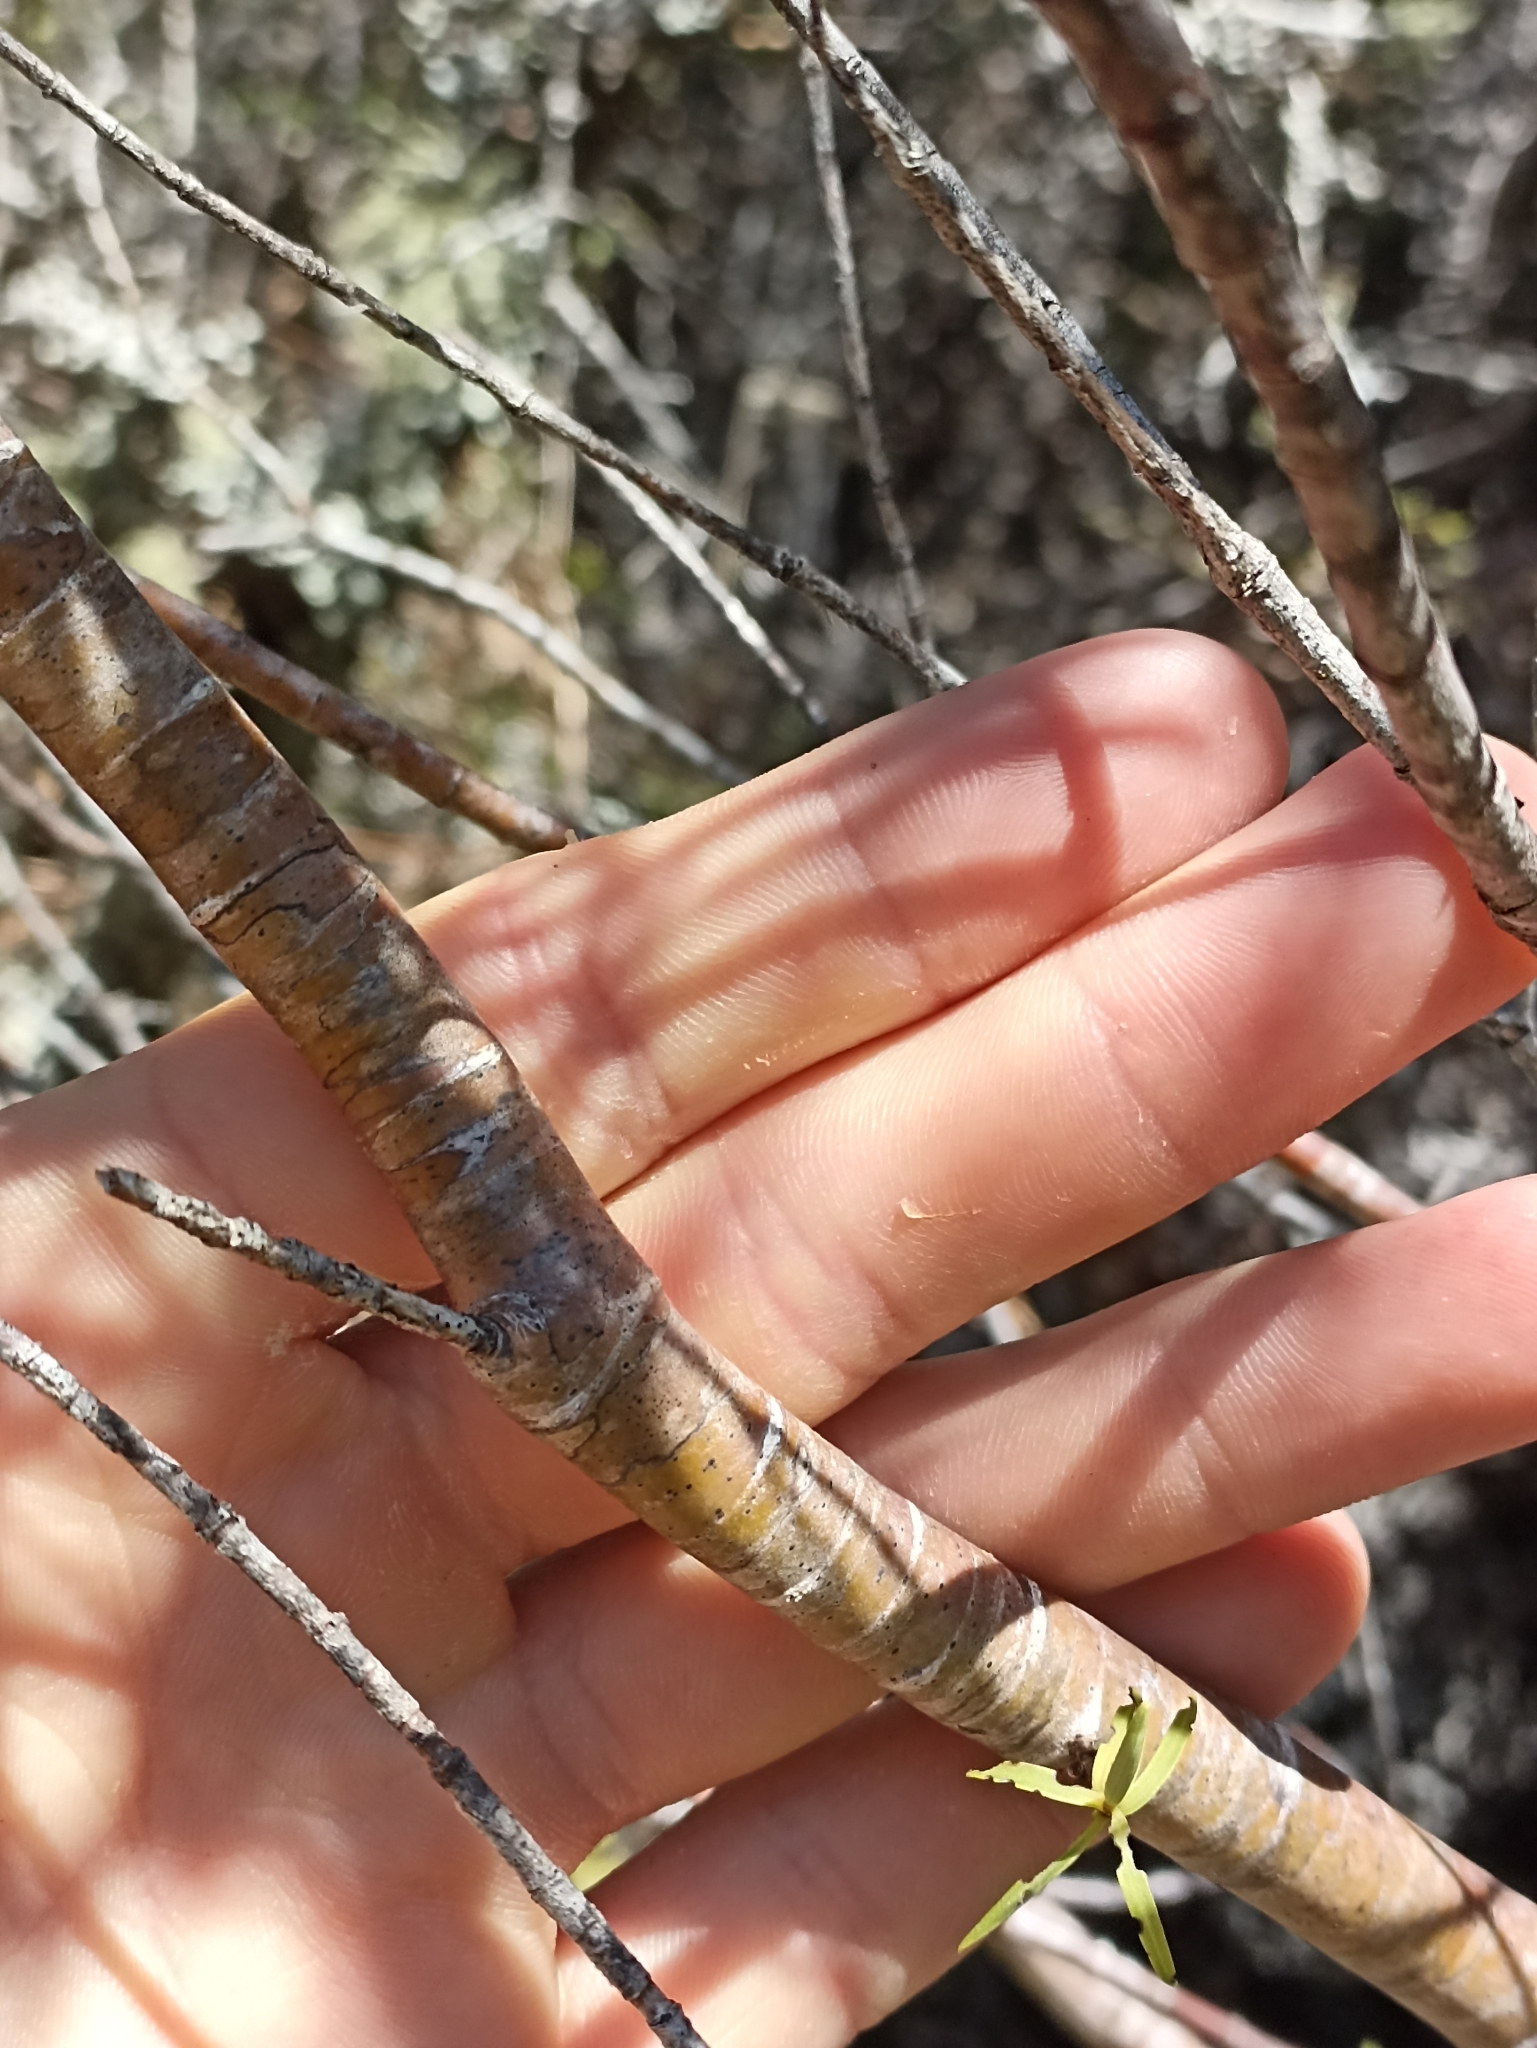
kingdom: Plantae
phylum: Tracheophyta
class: Magnoliopsida
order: Lamiales
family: Plantaginaceae
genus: Veronica
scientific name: Veronica stenophylla
